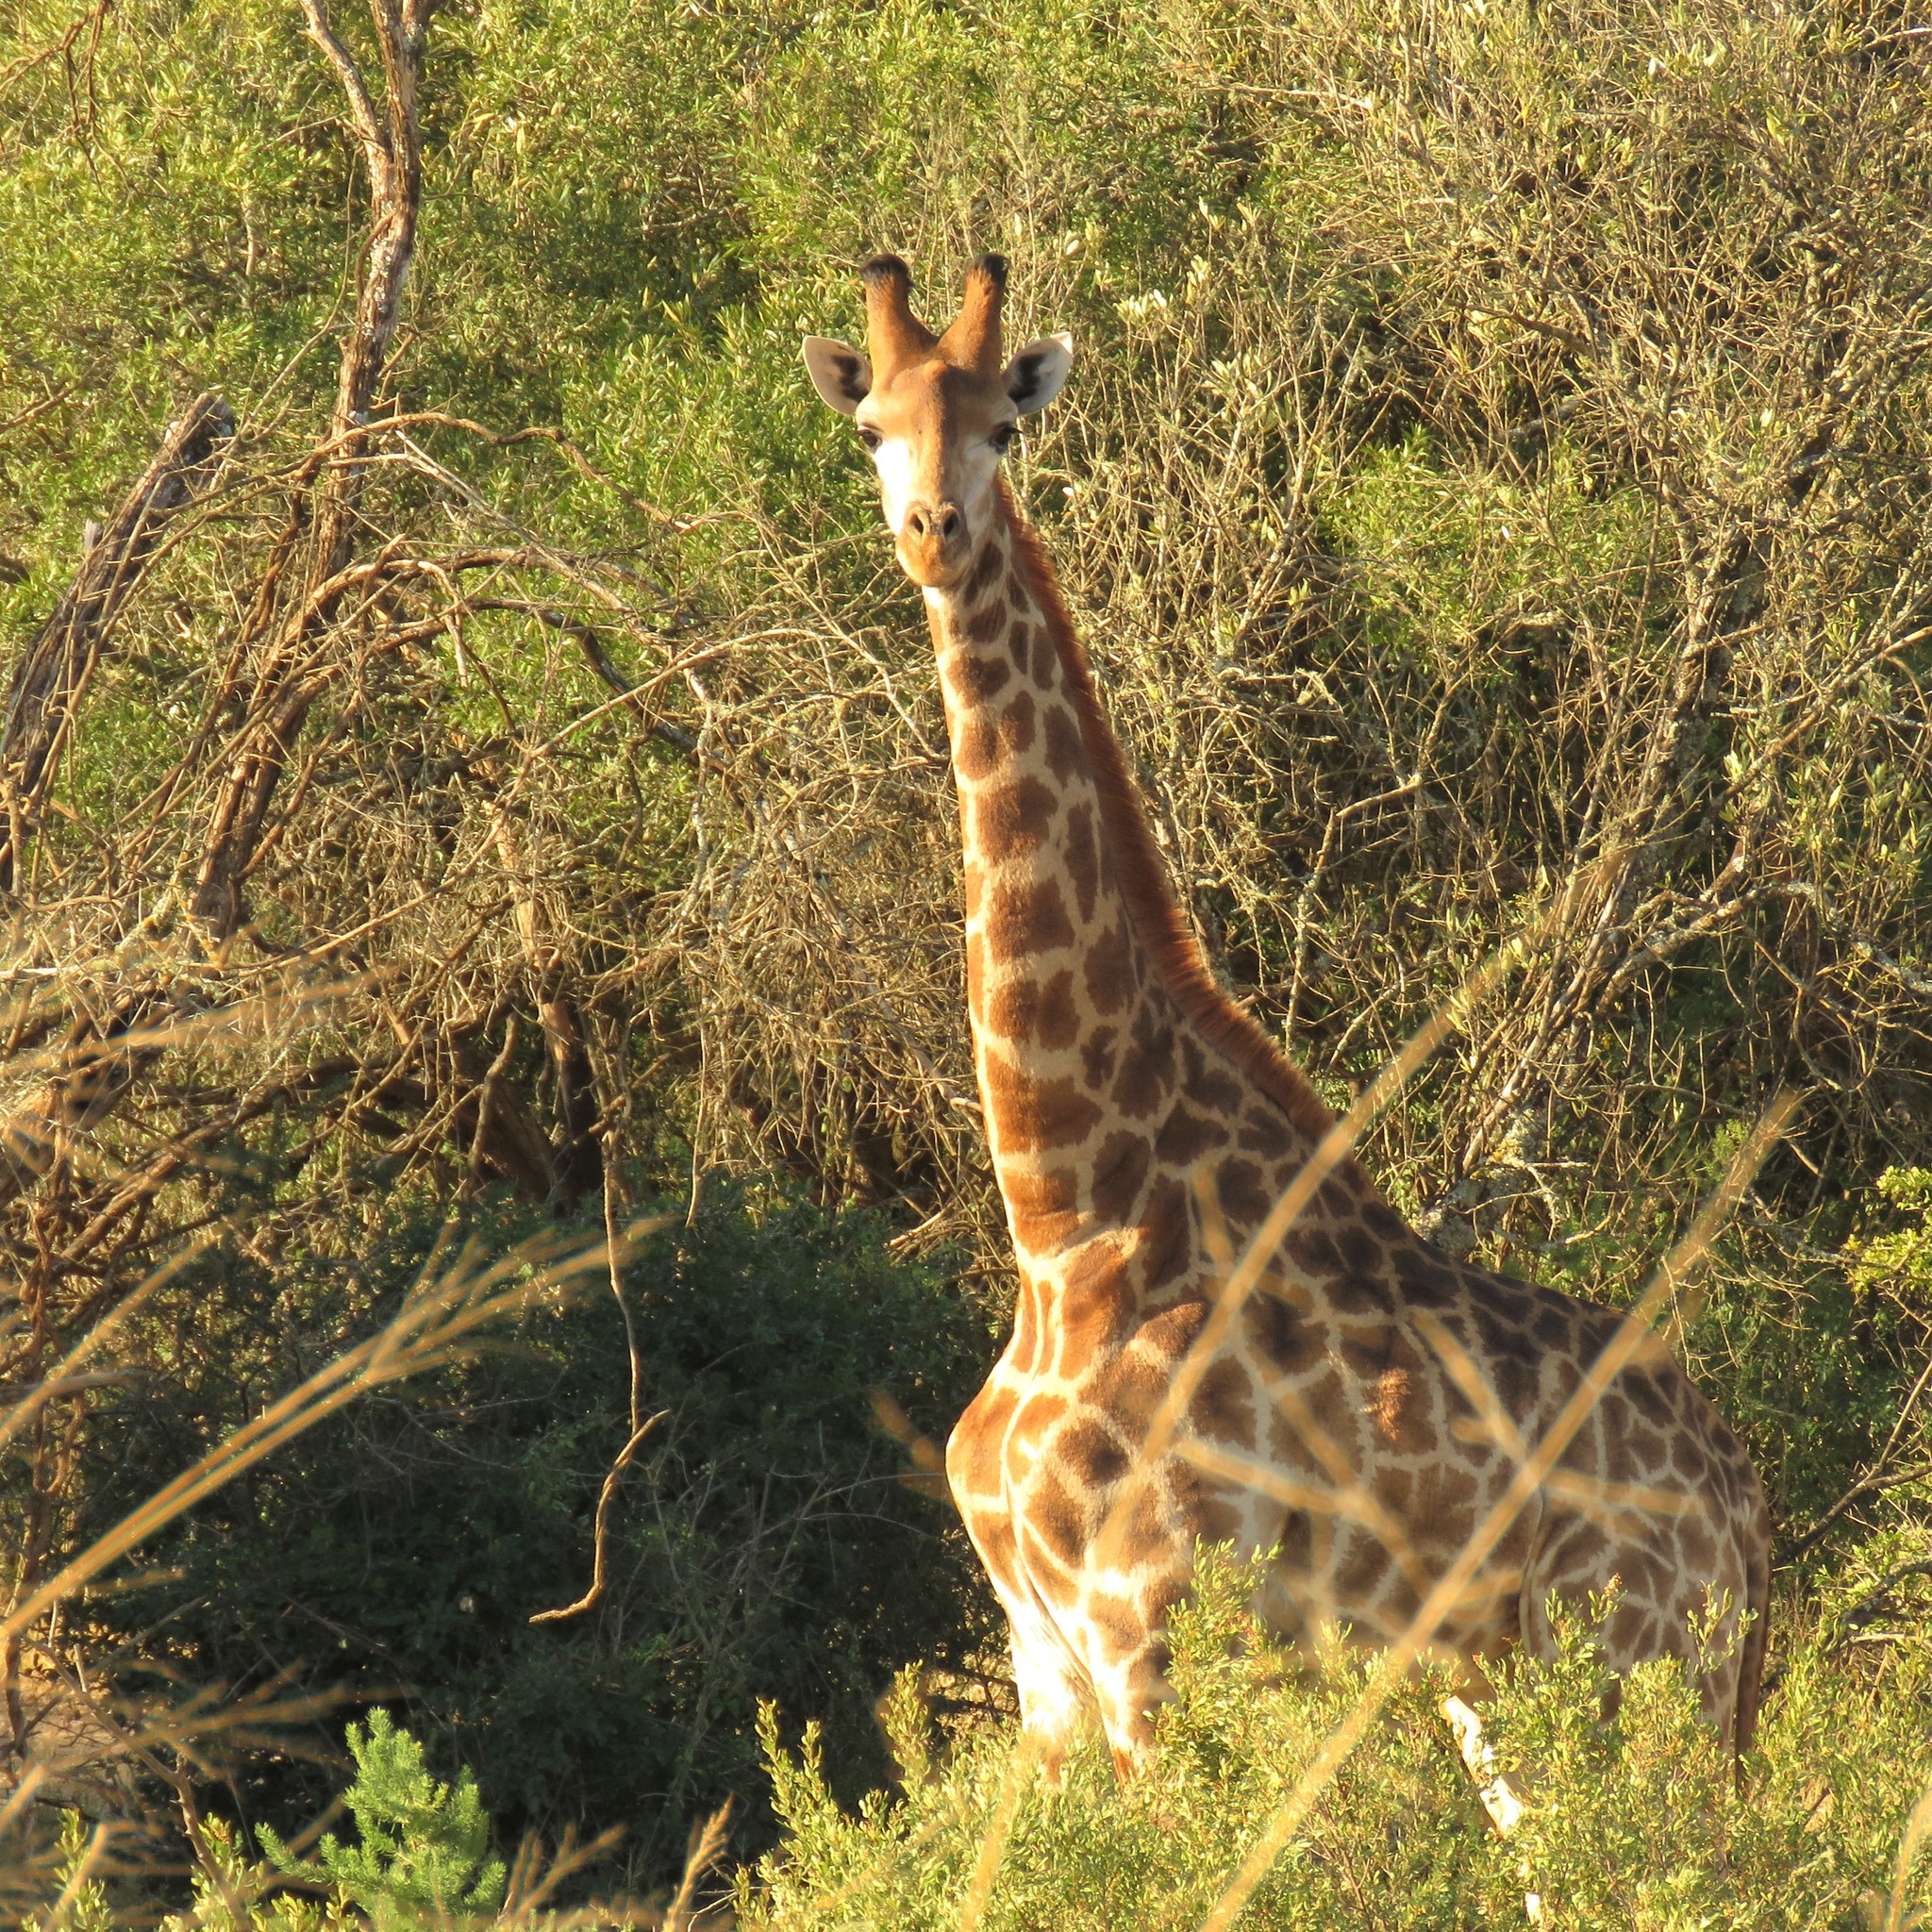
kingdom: Animalia
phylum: Chordata
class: Mammalia
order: Artiodactyla
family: Giraffidae
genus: Giraffa
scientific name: Giraffa giraffa
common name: Southern giraffe
